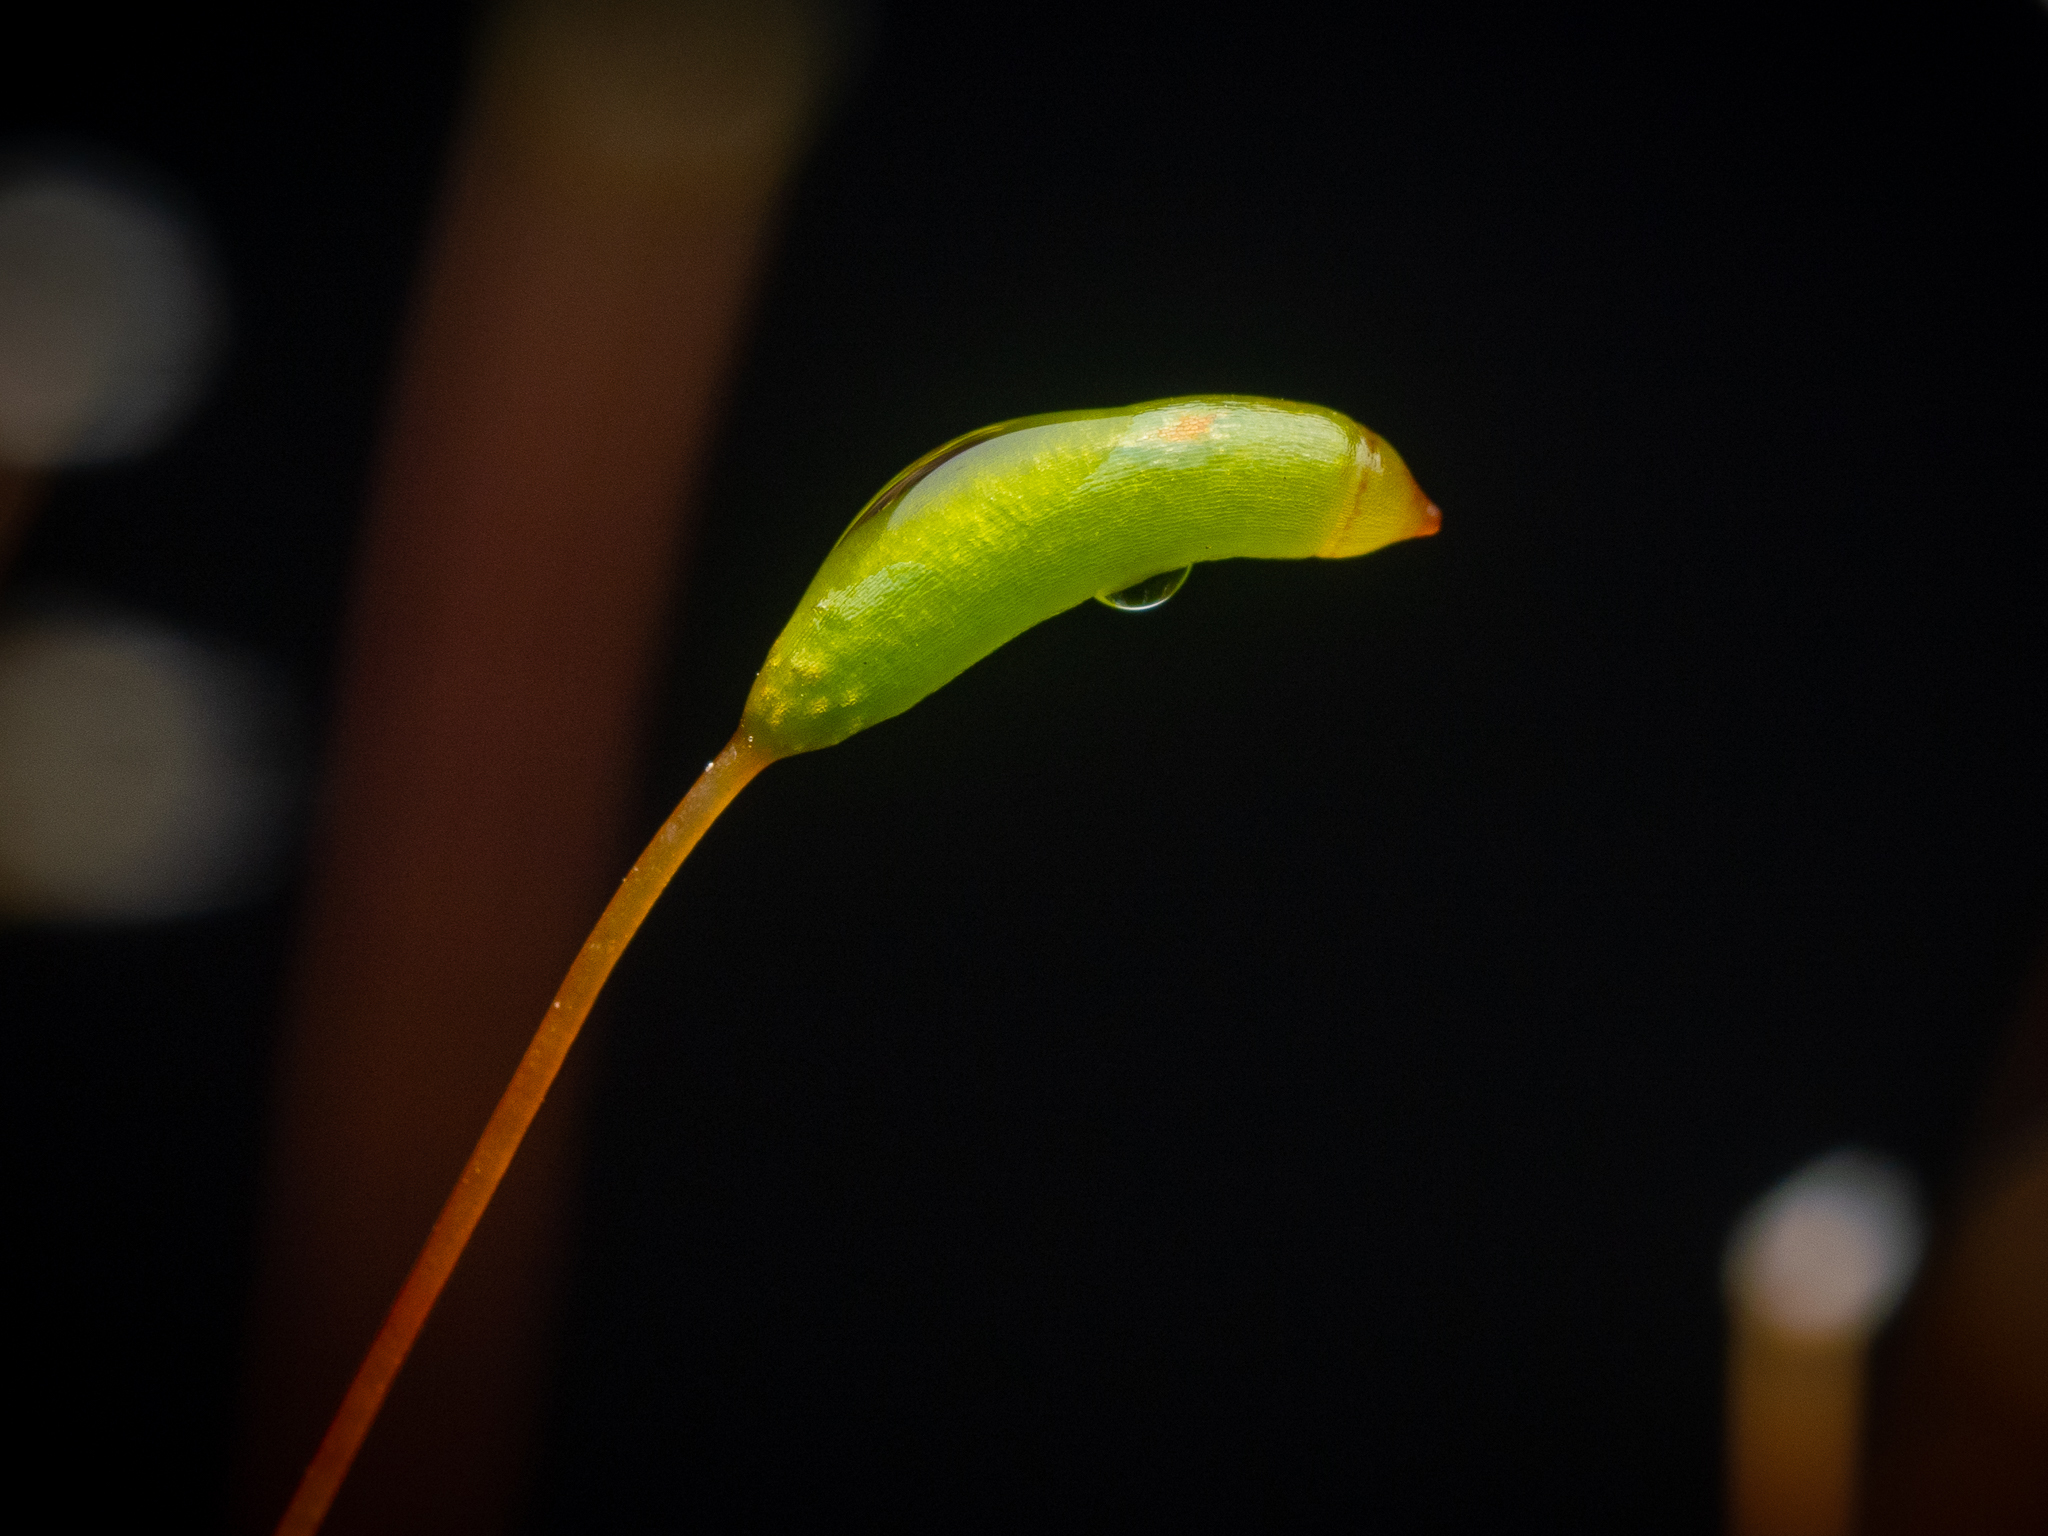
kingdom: Plantae
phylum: Bryophyta
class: Bryopsida
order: Hypnales
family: Plagiotheciaceae
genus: Herzogiella
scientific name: Herzogiella seligeri
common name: Silesian feather-moss
